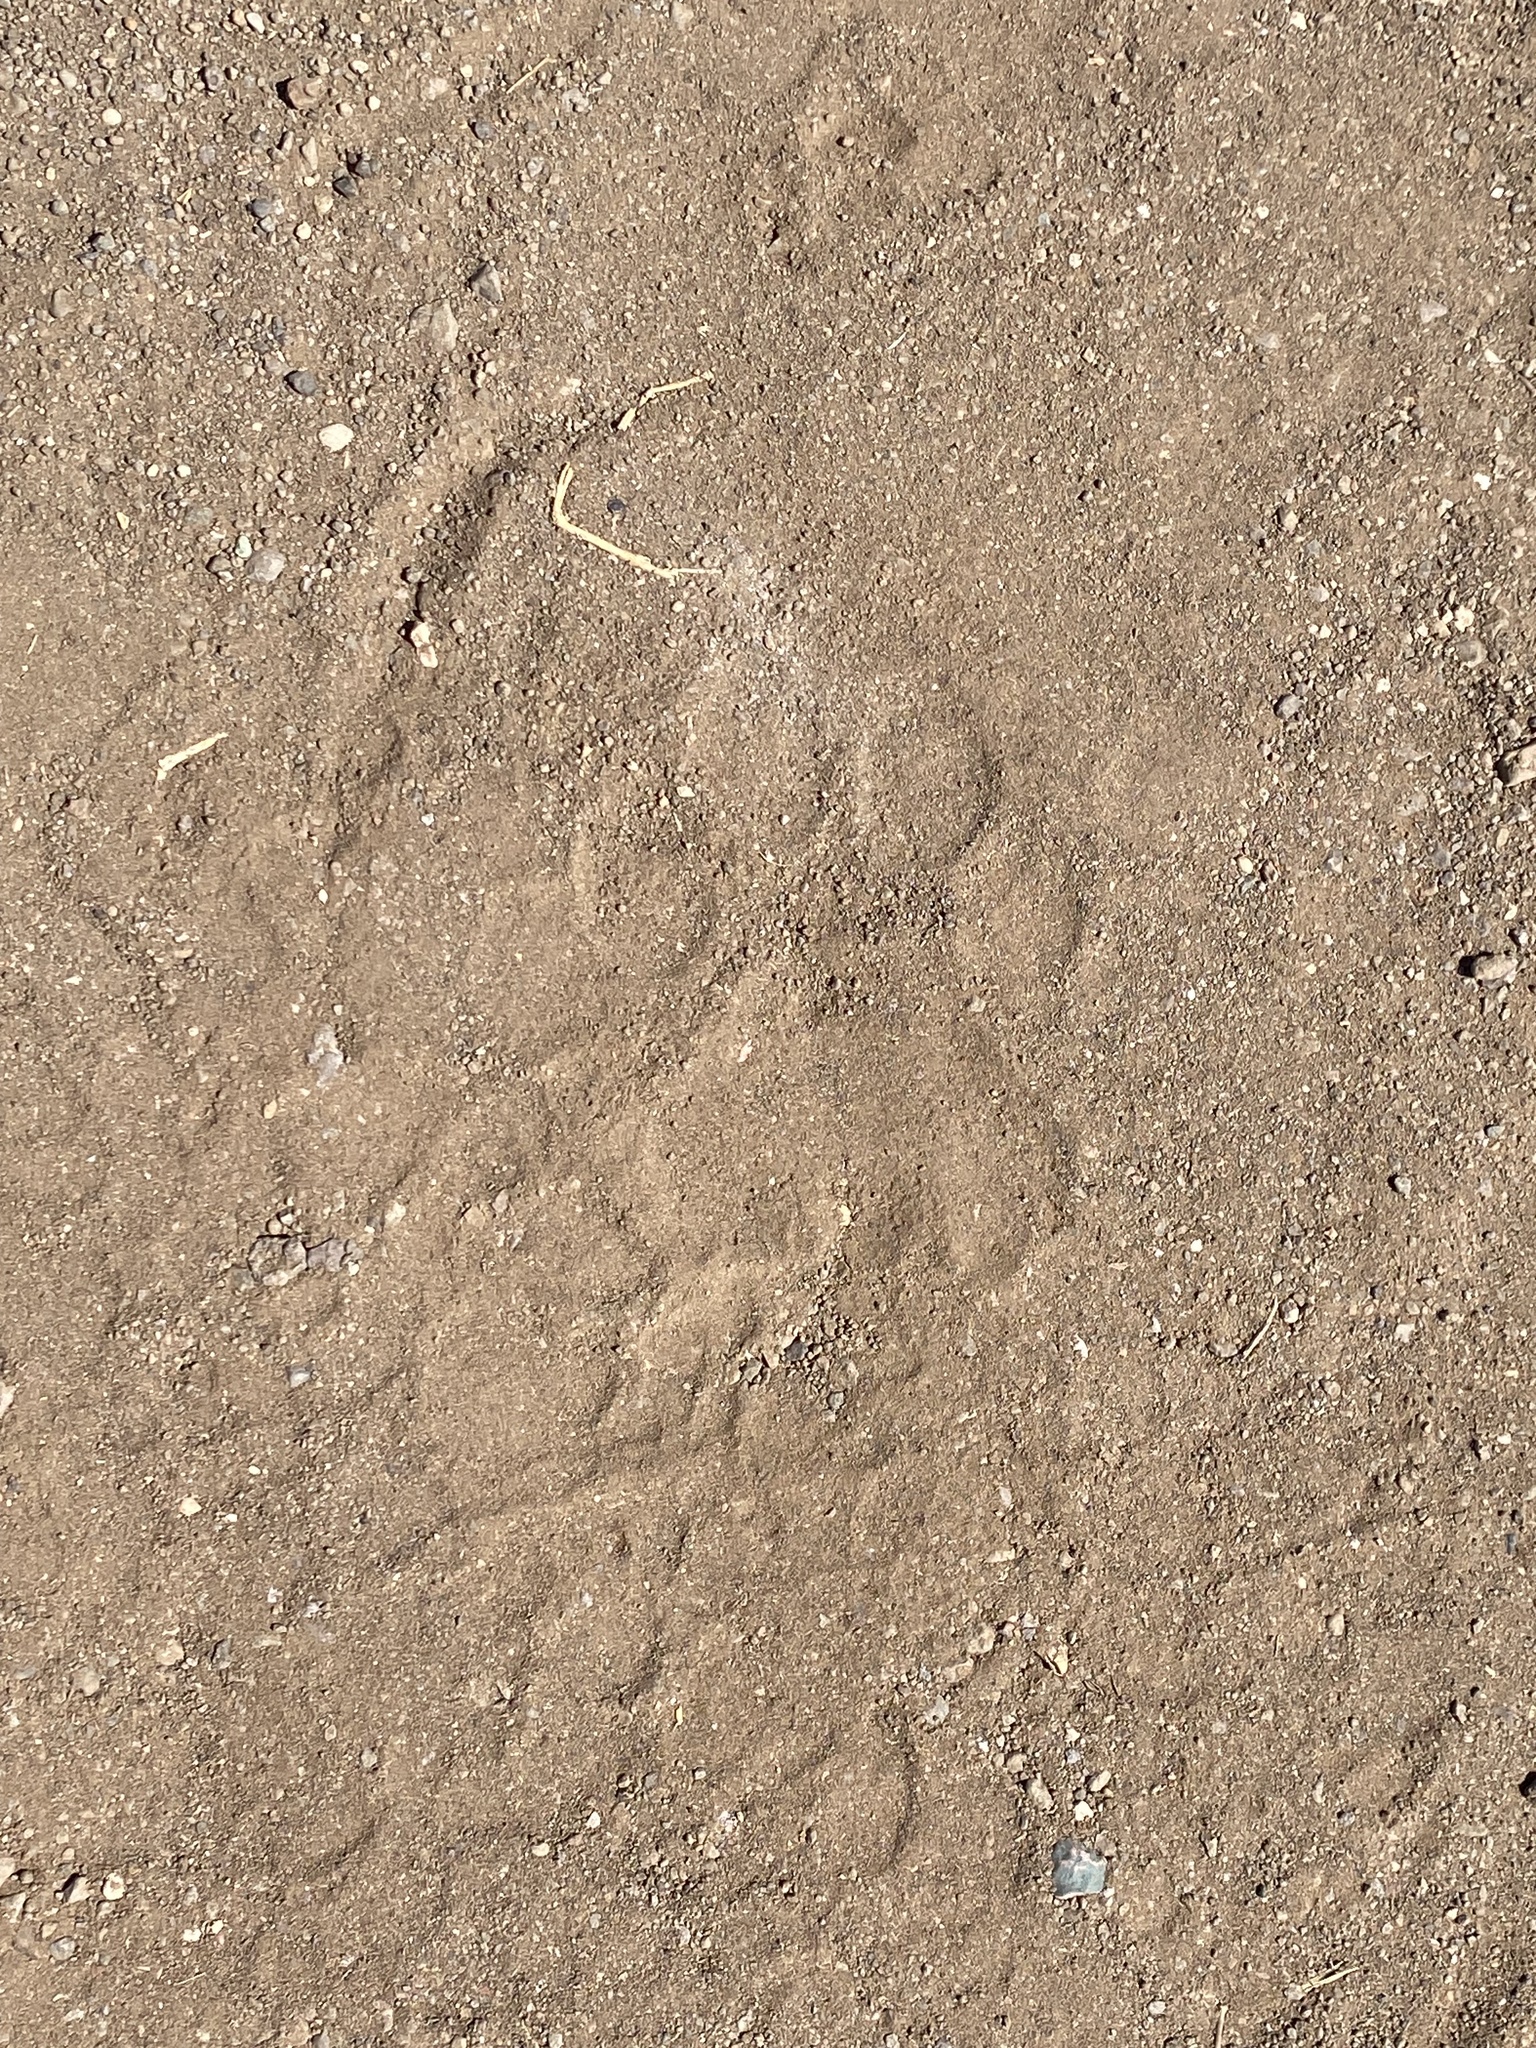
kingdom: Animalia
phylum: Chordata
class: Mammalia
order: Carnivora
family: Felidae
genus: Panthera
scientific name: Panthera pardus
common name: Leopard
